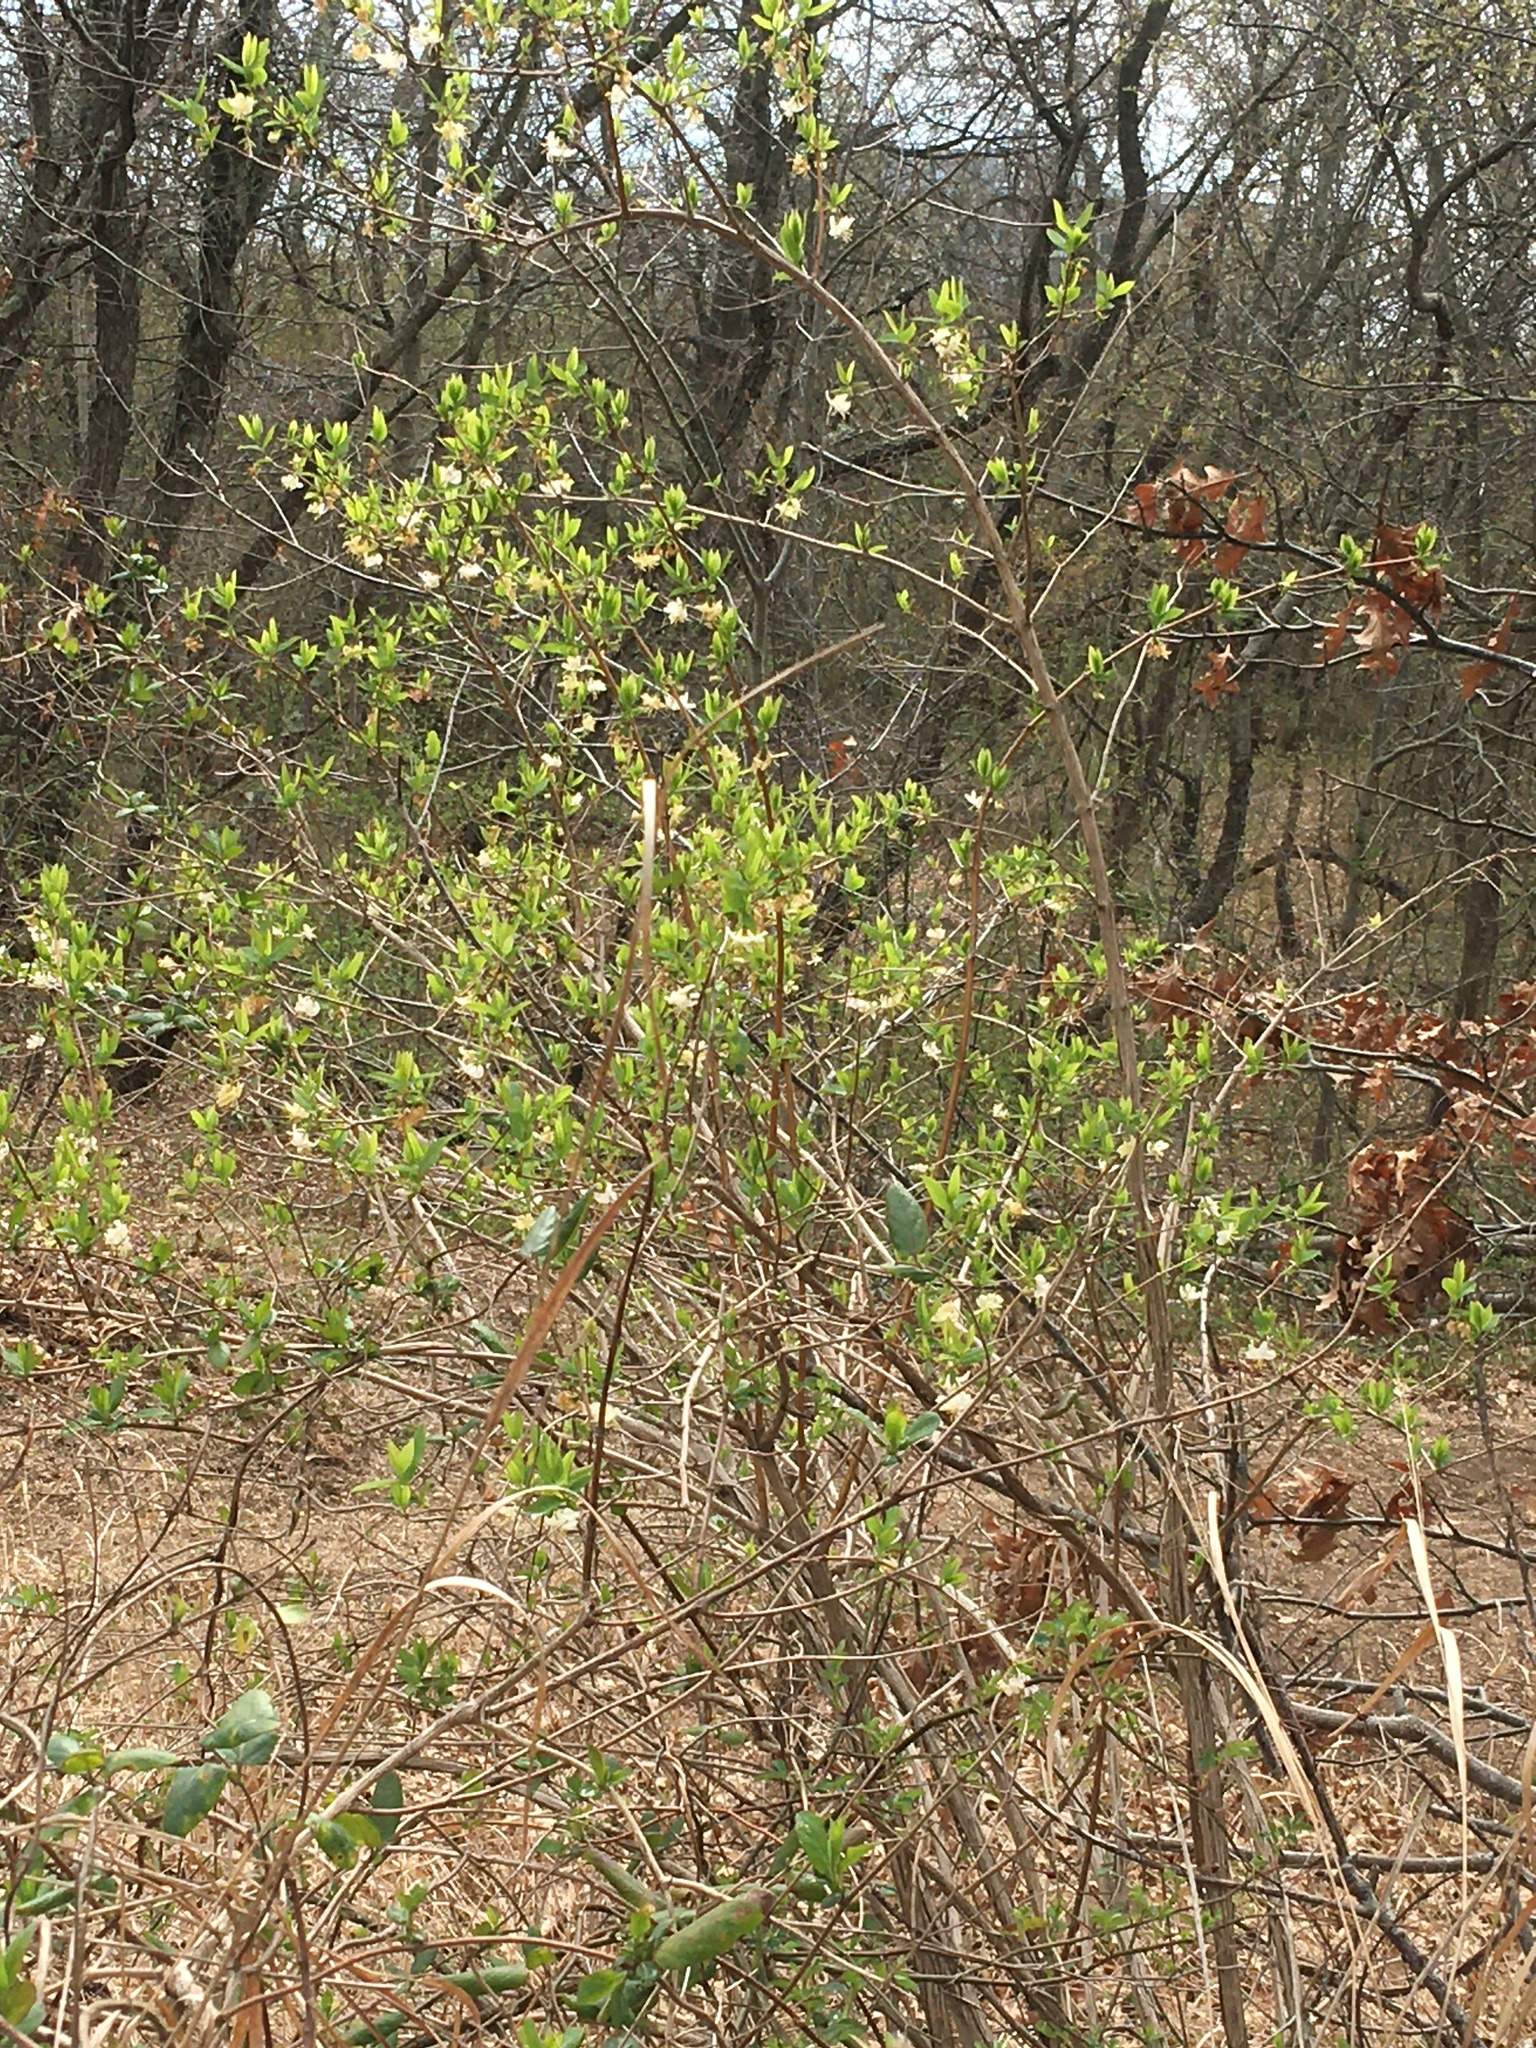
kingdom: Plantae
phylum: Tracheophyta
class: Magnoliopsida
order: Dipsacales
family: Caprifoliaceae
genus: Lonicera
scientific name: Lonicera fragrantissima
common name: Fragrant honeysuckle
